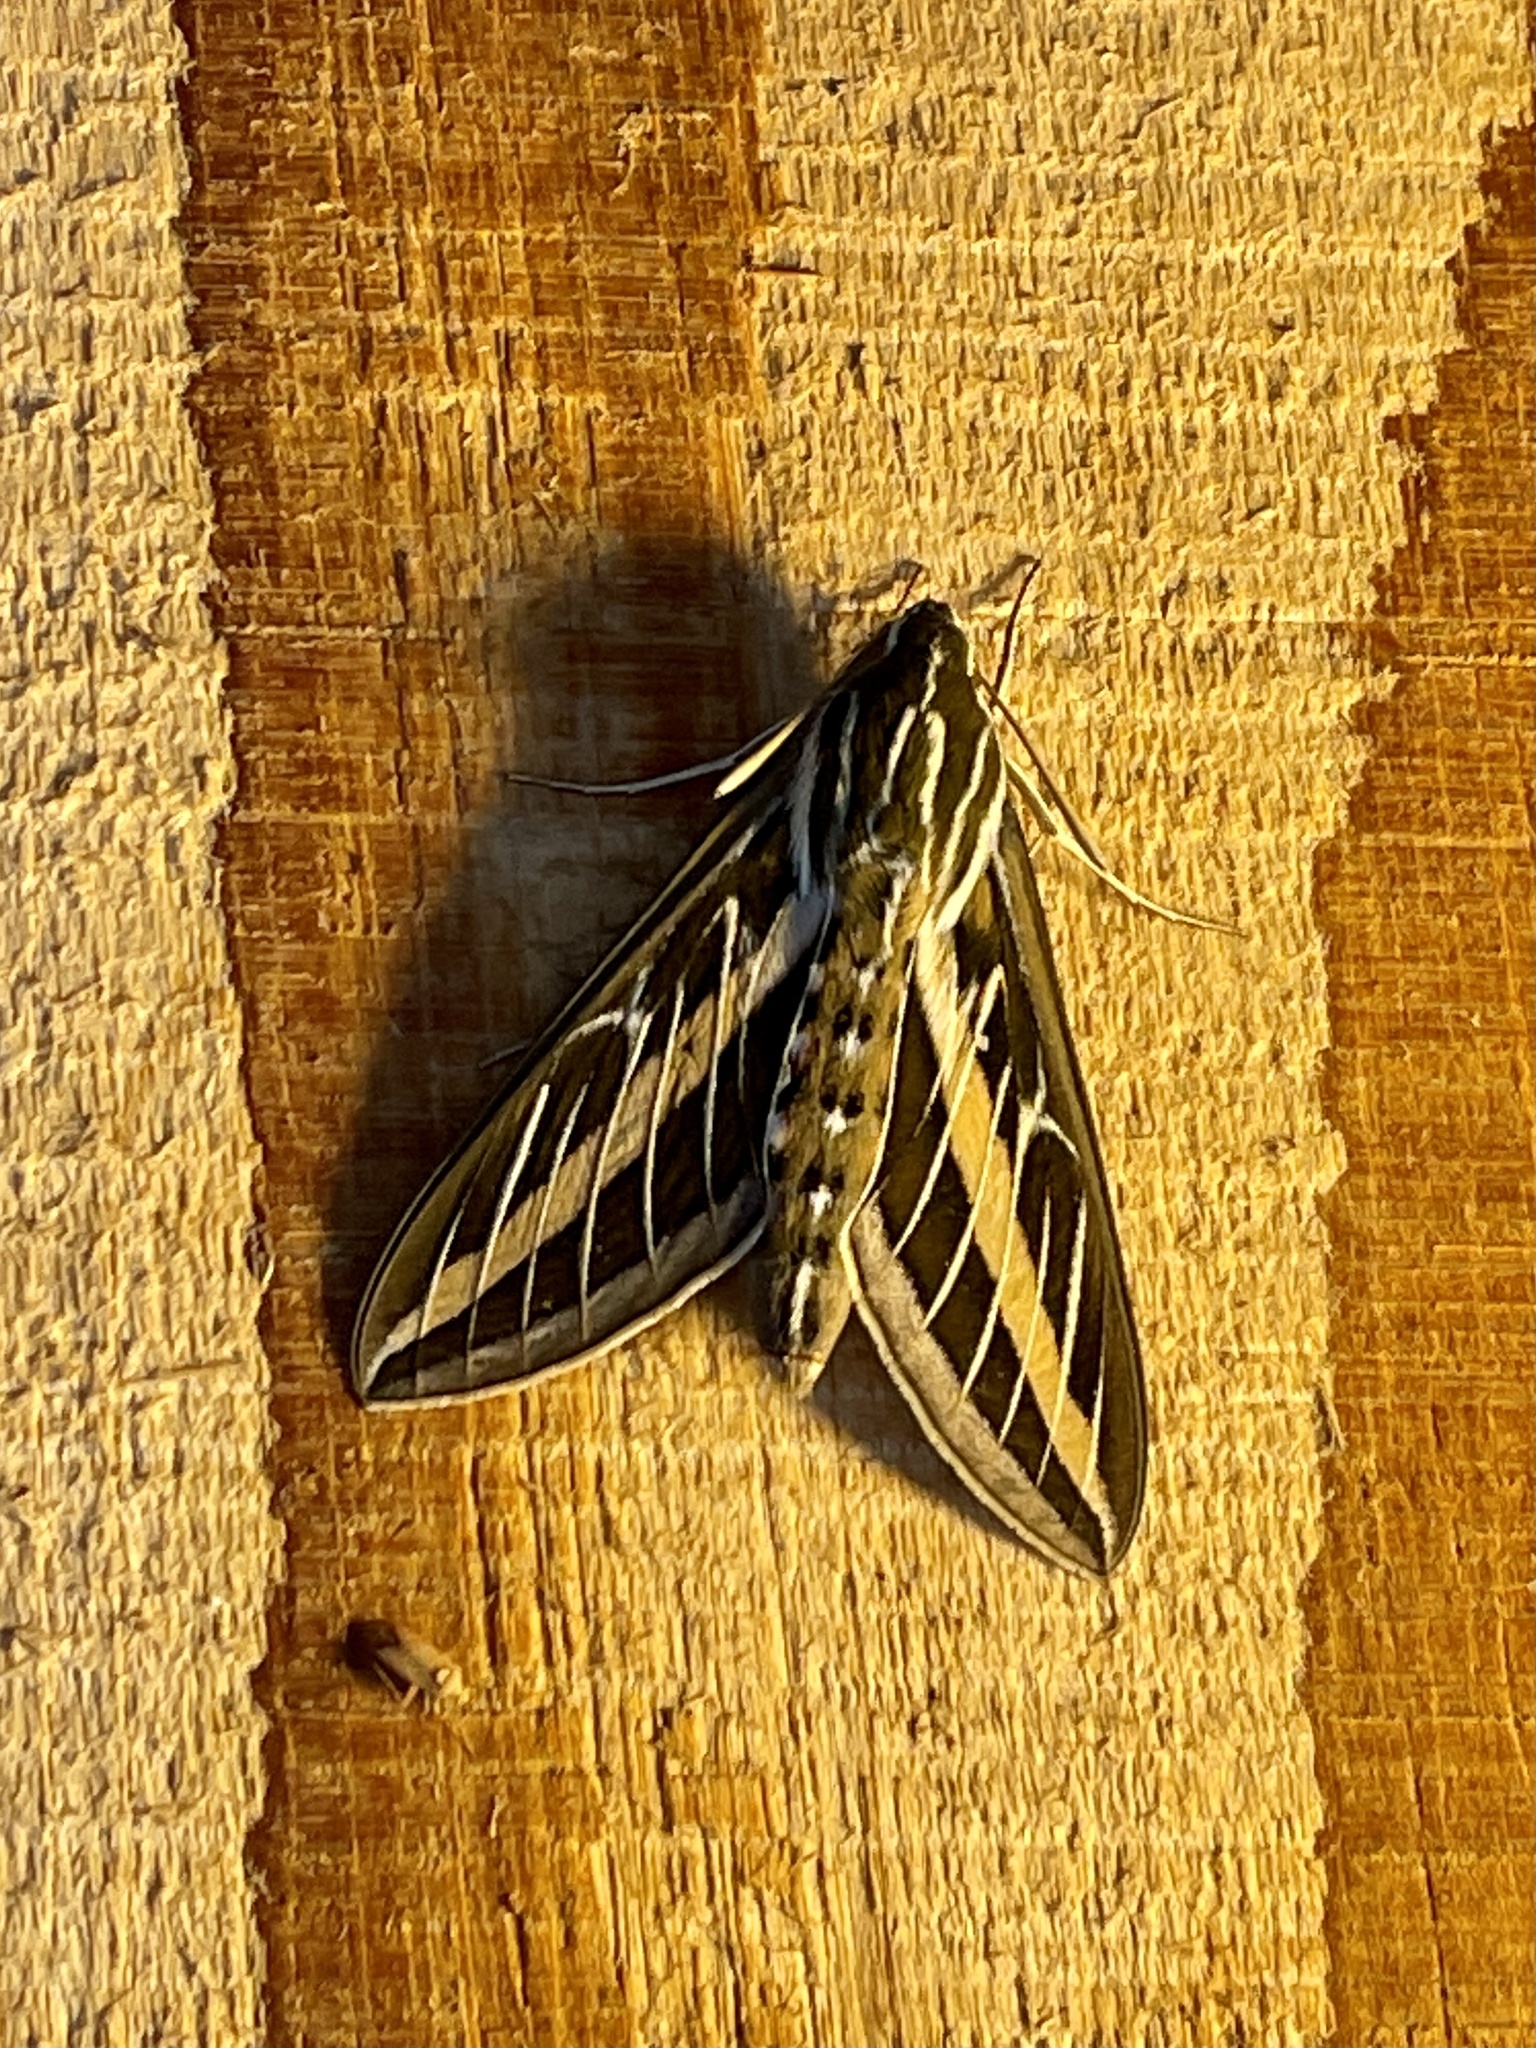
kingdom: Animalia
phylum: Arthropoda
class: Insecta
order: Lepidoptera
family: Sphingidae
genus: Hyles
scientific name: Hyles lineata
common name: White-lined sphinx
